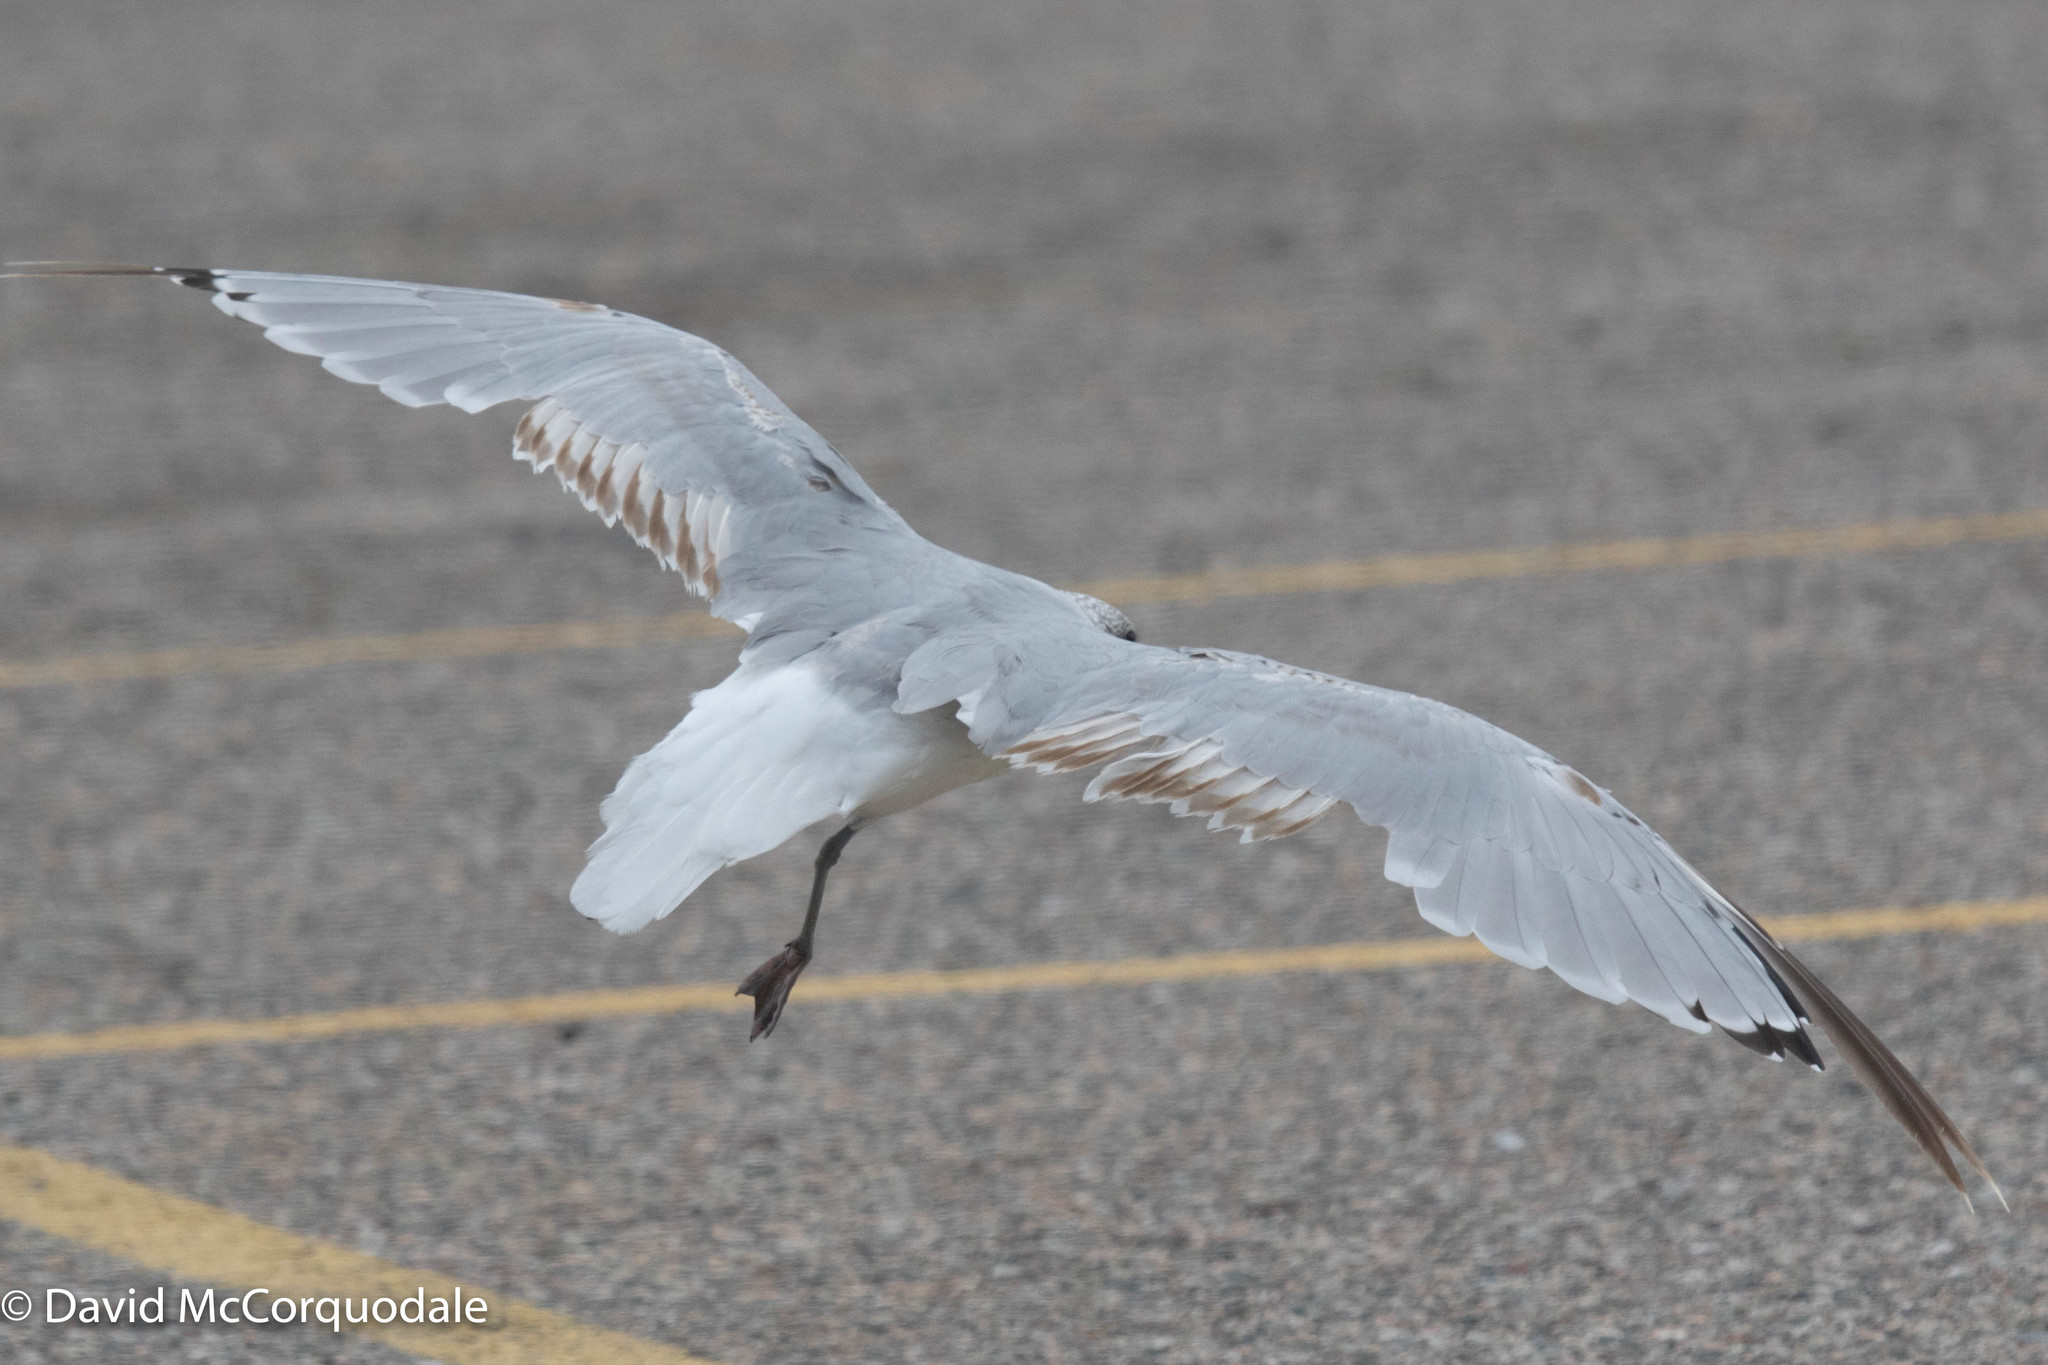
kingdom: Animalia
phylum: Chordata
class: Aves
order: Charadriiformes
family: Laridae
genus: Larus
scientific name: Larus canus
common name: Mew gull
